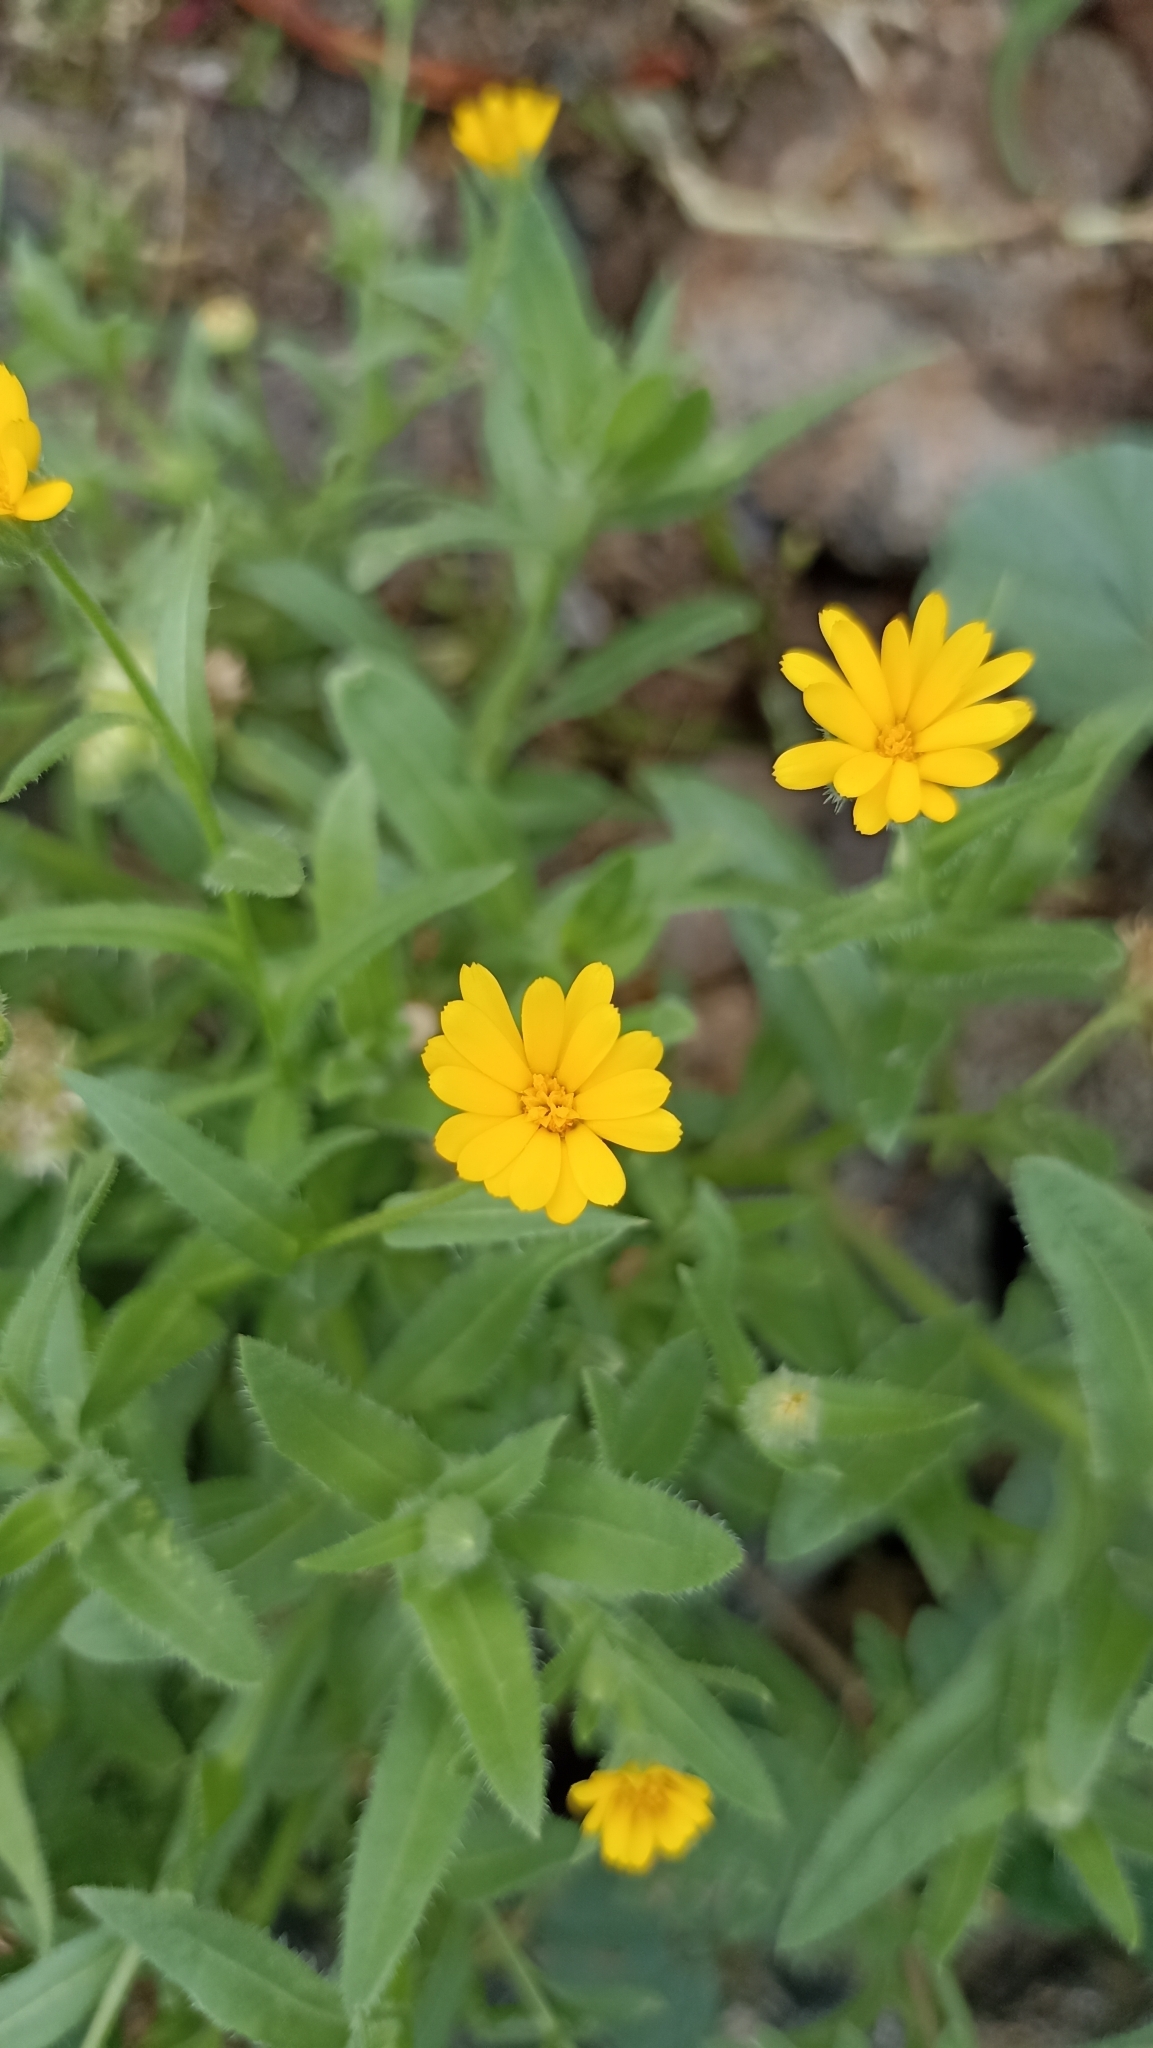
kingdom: Plantae
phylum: Tracheophyta
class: Magnoliopsida
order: Asterales
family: Asteraceae
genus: Calendula
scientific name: Calendula arvensis
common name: Field marigold
